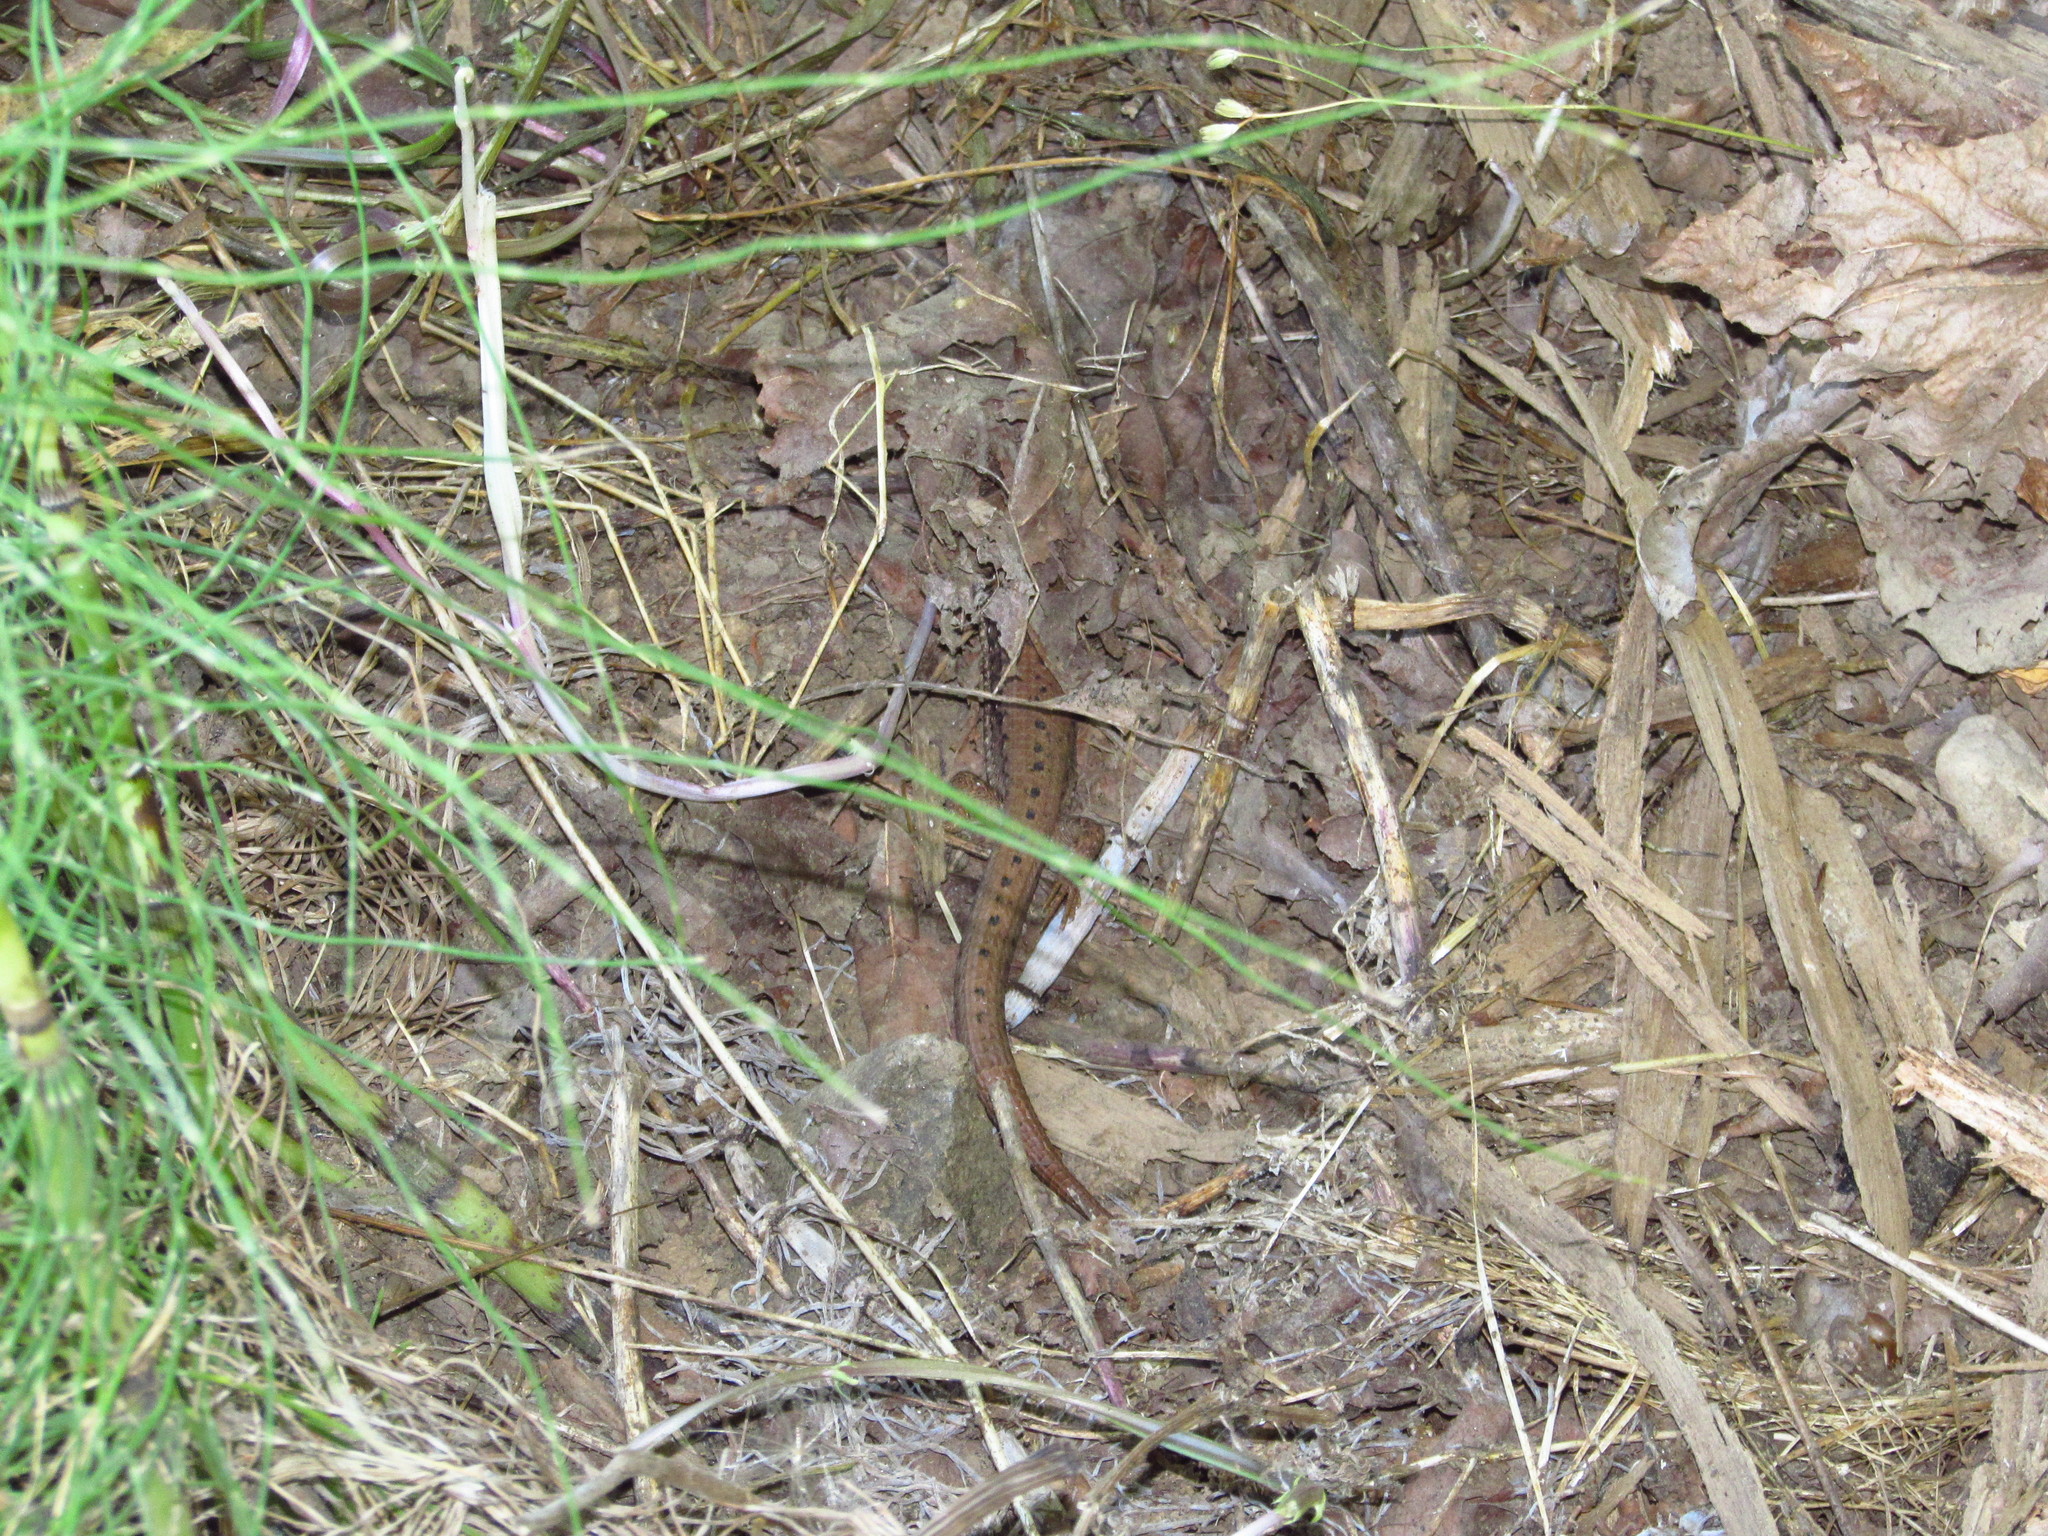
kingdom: Animalia
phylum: Chordata
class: Squamata
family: Anguidae
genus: Elgaria
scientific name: Elgaria coerulea
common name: Northern alligator lizard
